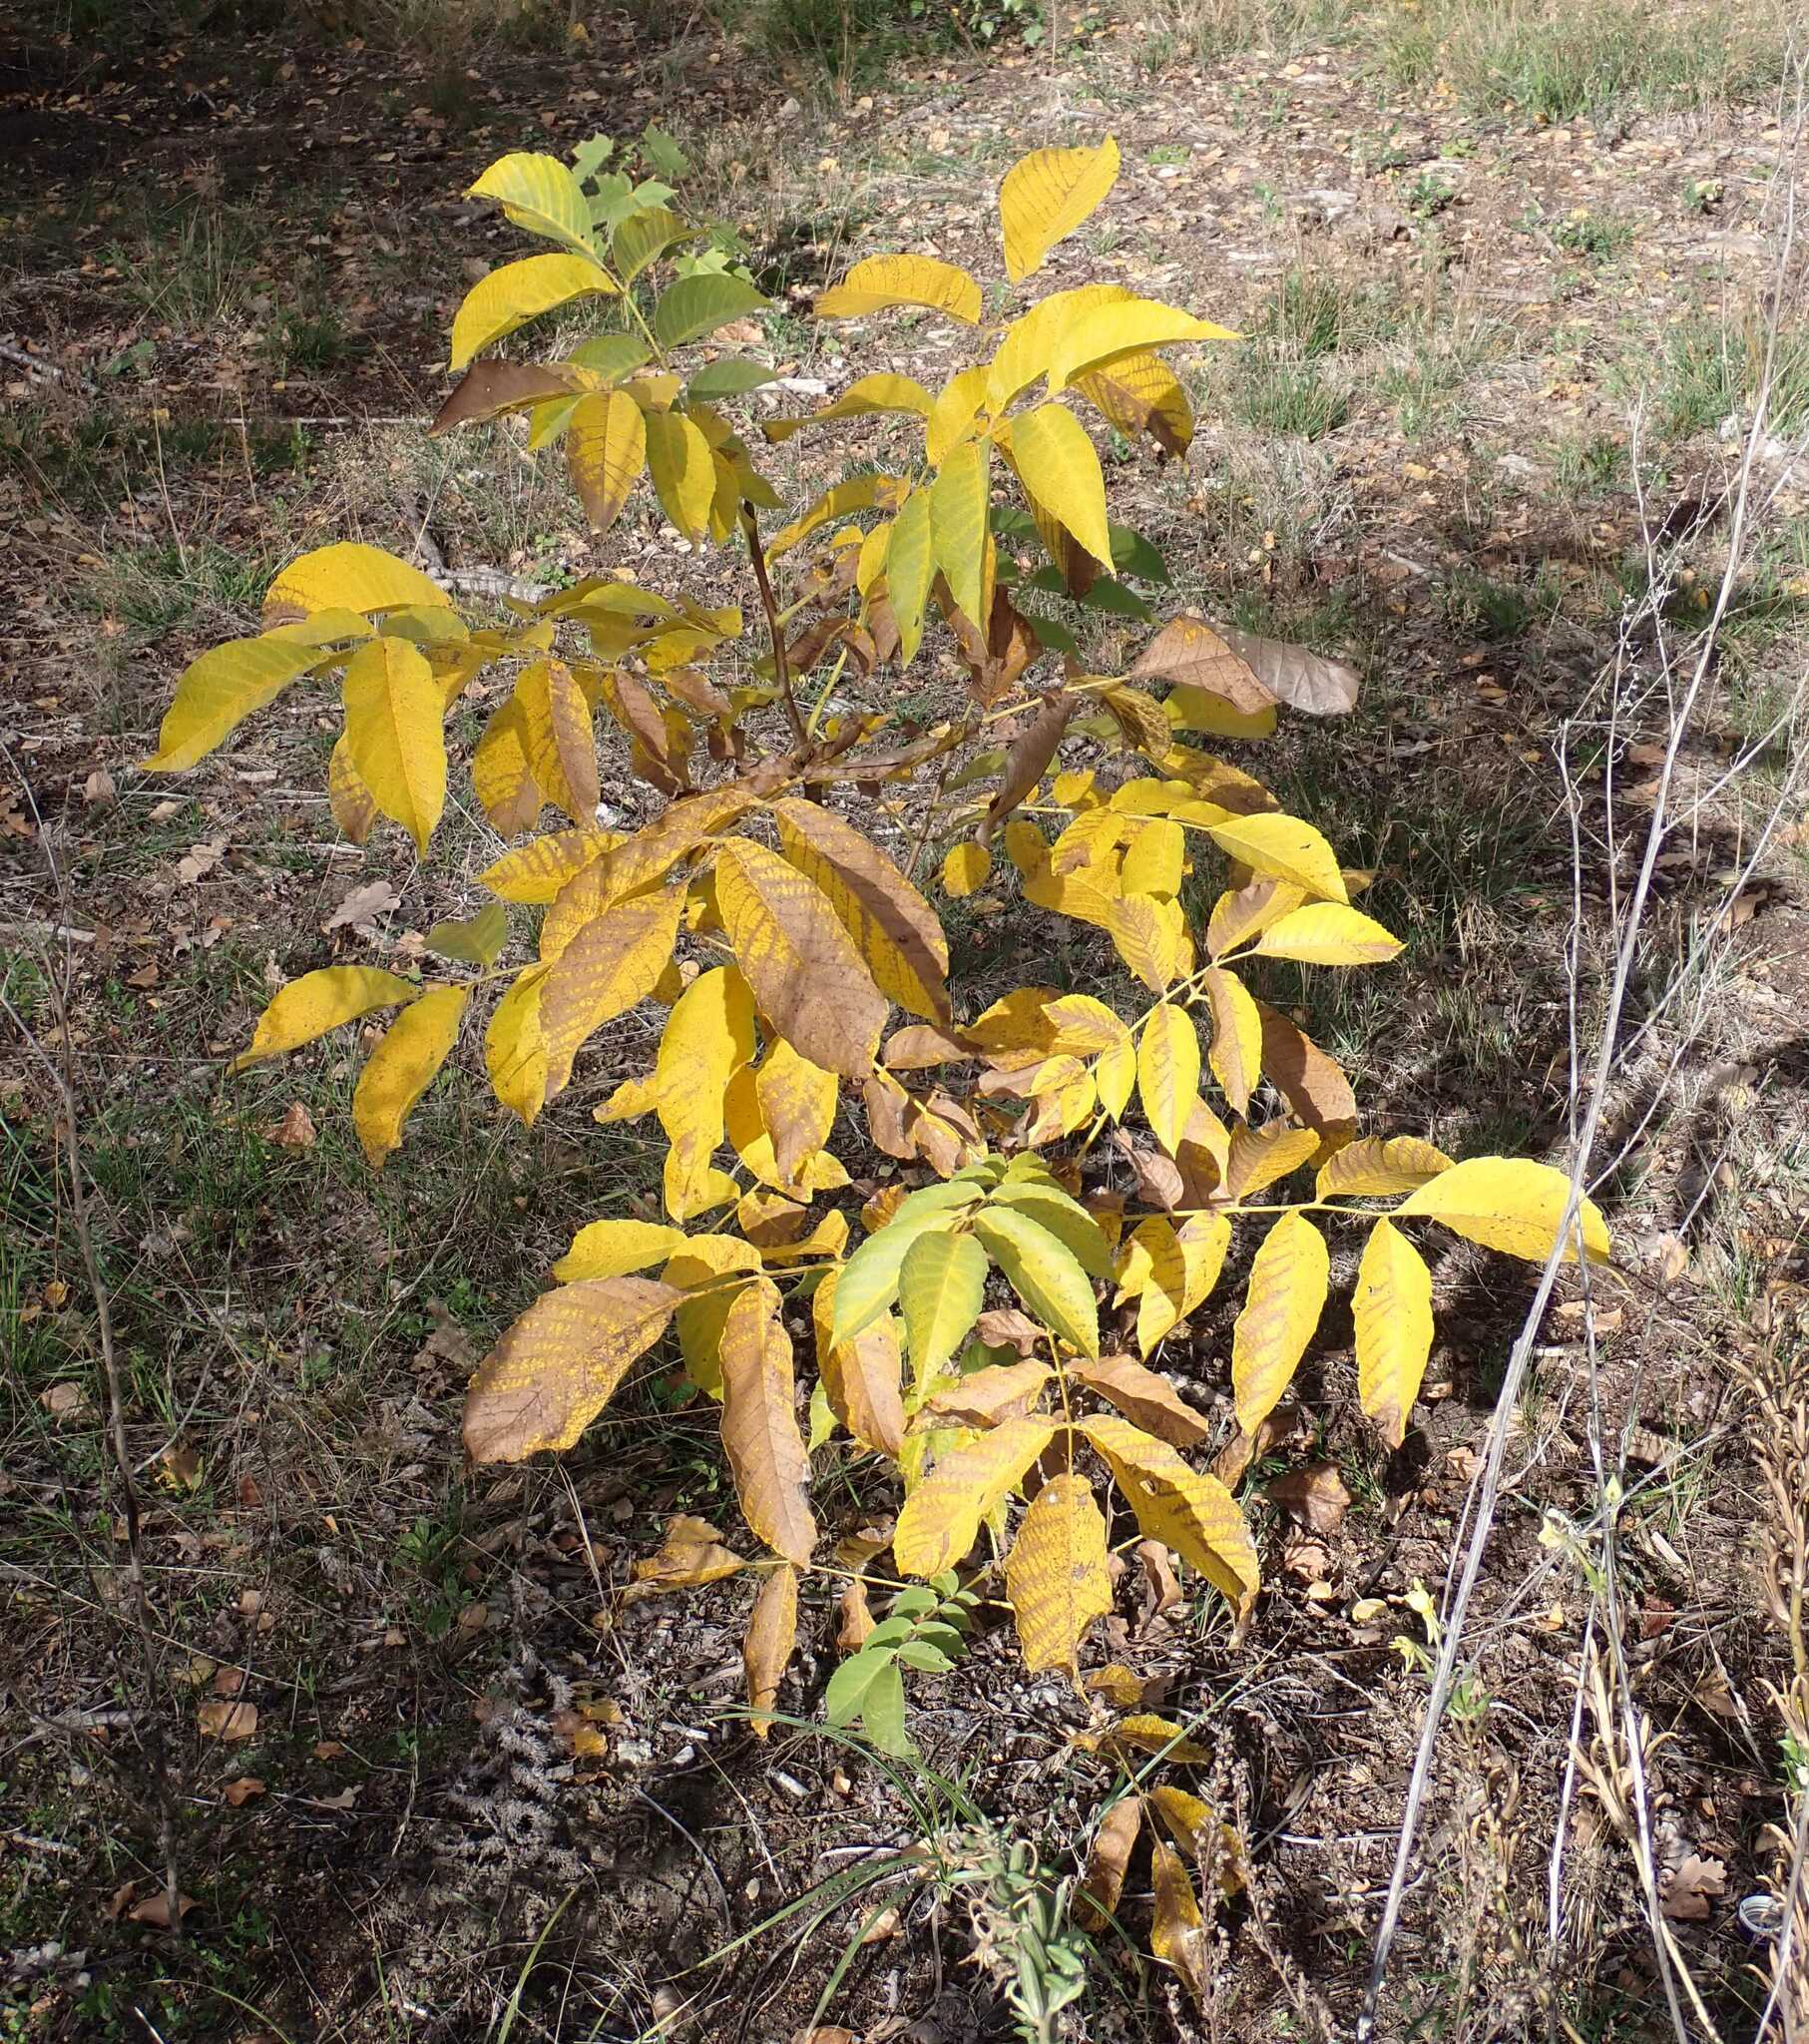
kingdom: Plantae
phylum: Tracheophyta
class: Magnoliopsida
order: Fagales
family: Juglandaceae
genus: Juglans
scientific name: Juglans regia
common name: Walnut
